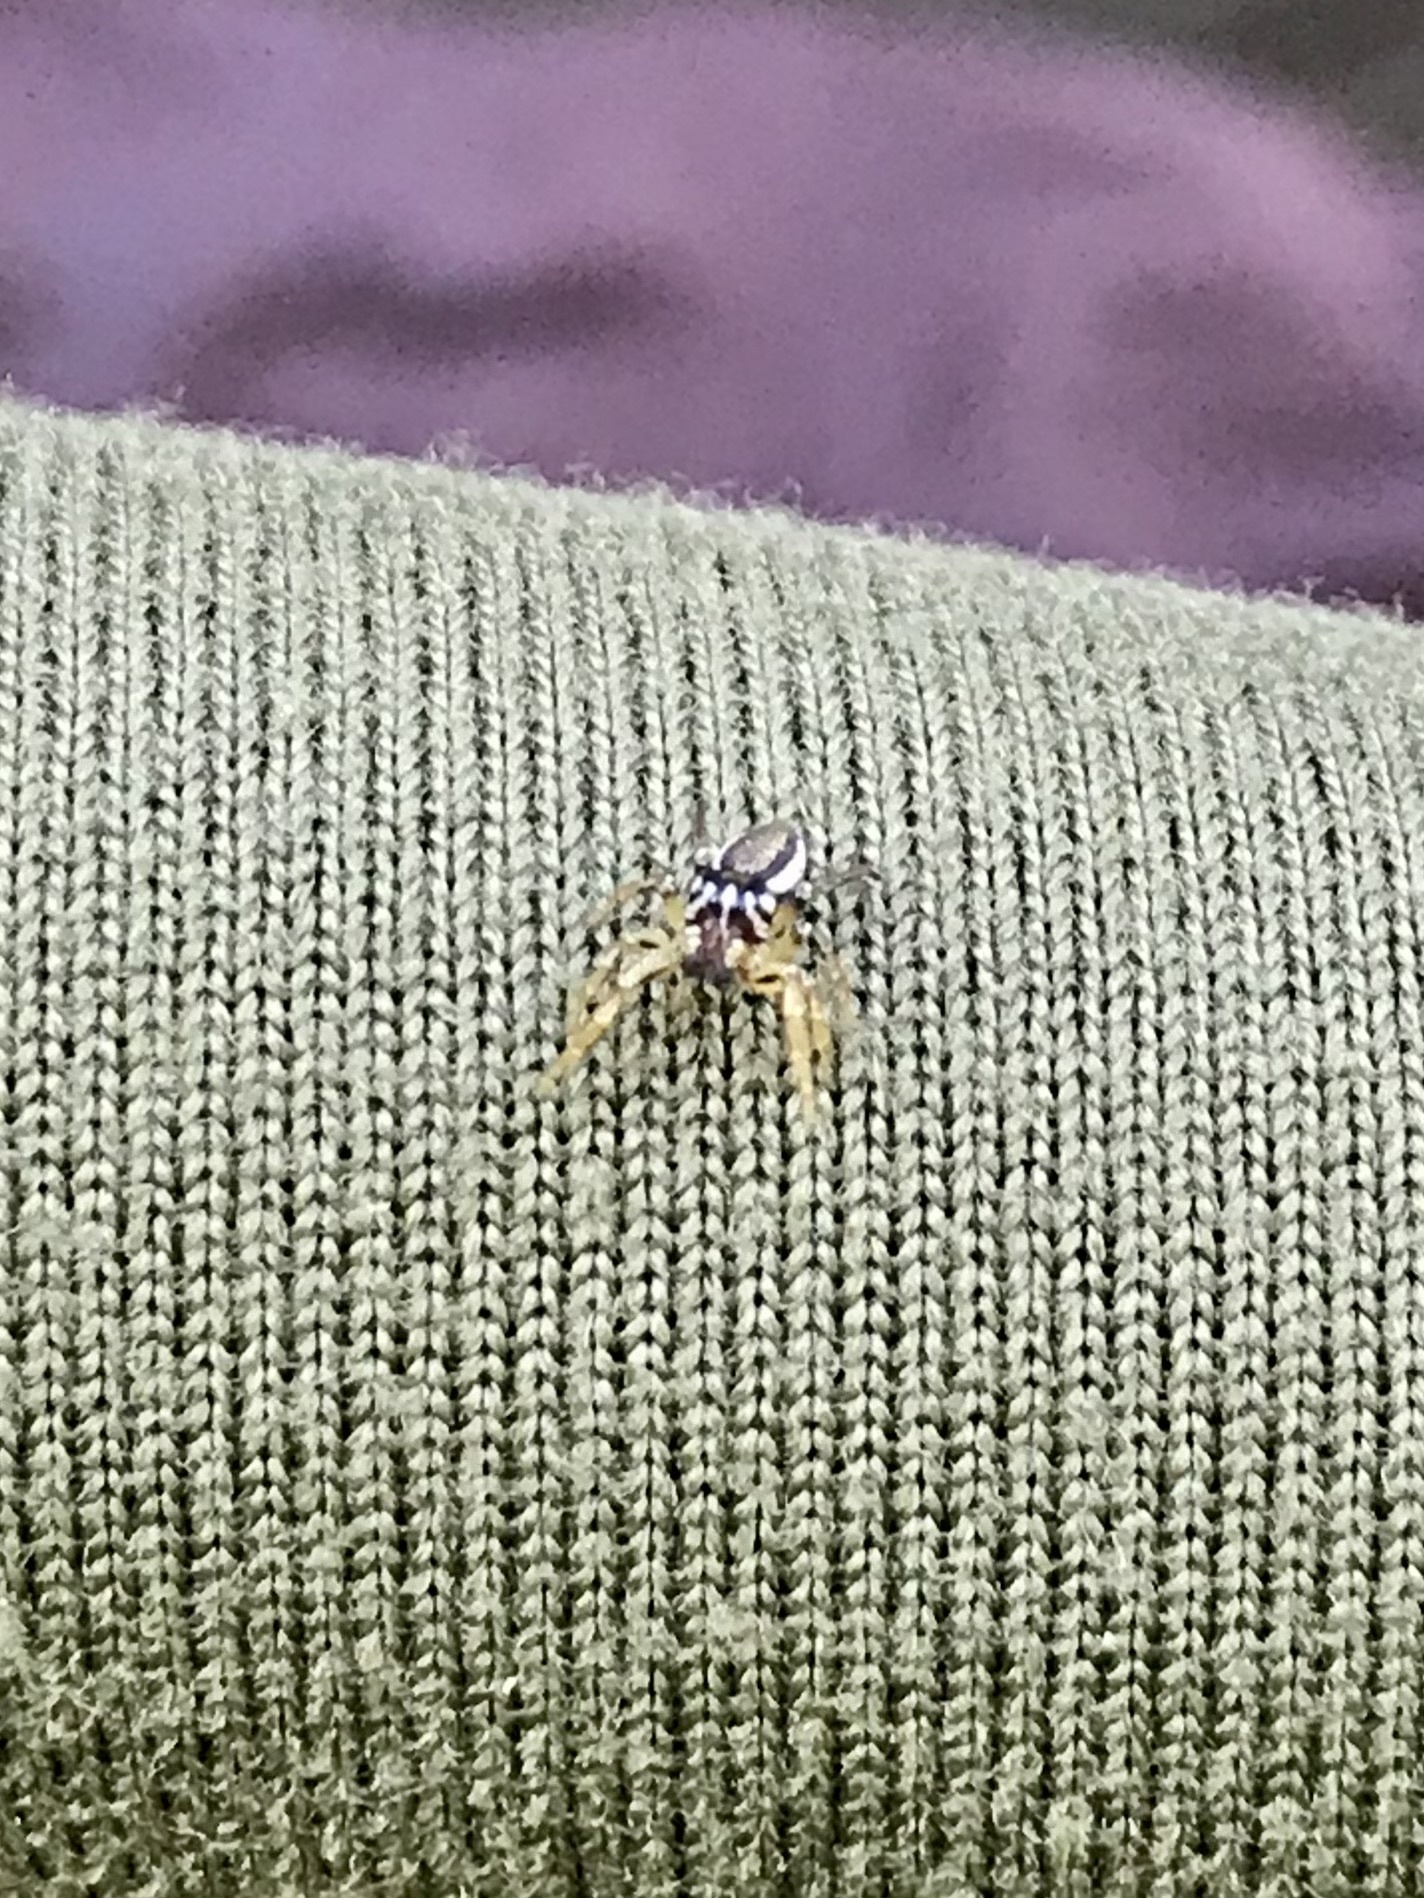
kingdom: Animalia
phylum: Arthropoda
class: Arachnida
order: Araneae
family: Salticidae
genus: Pelegrina
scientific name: Pelegrina flavipes
